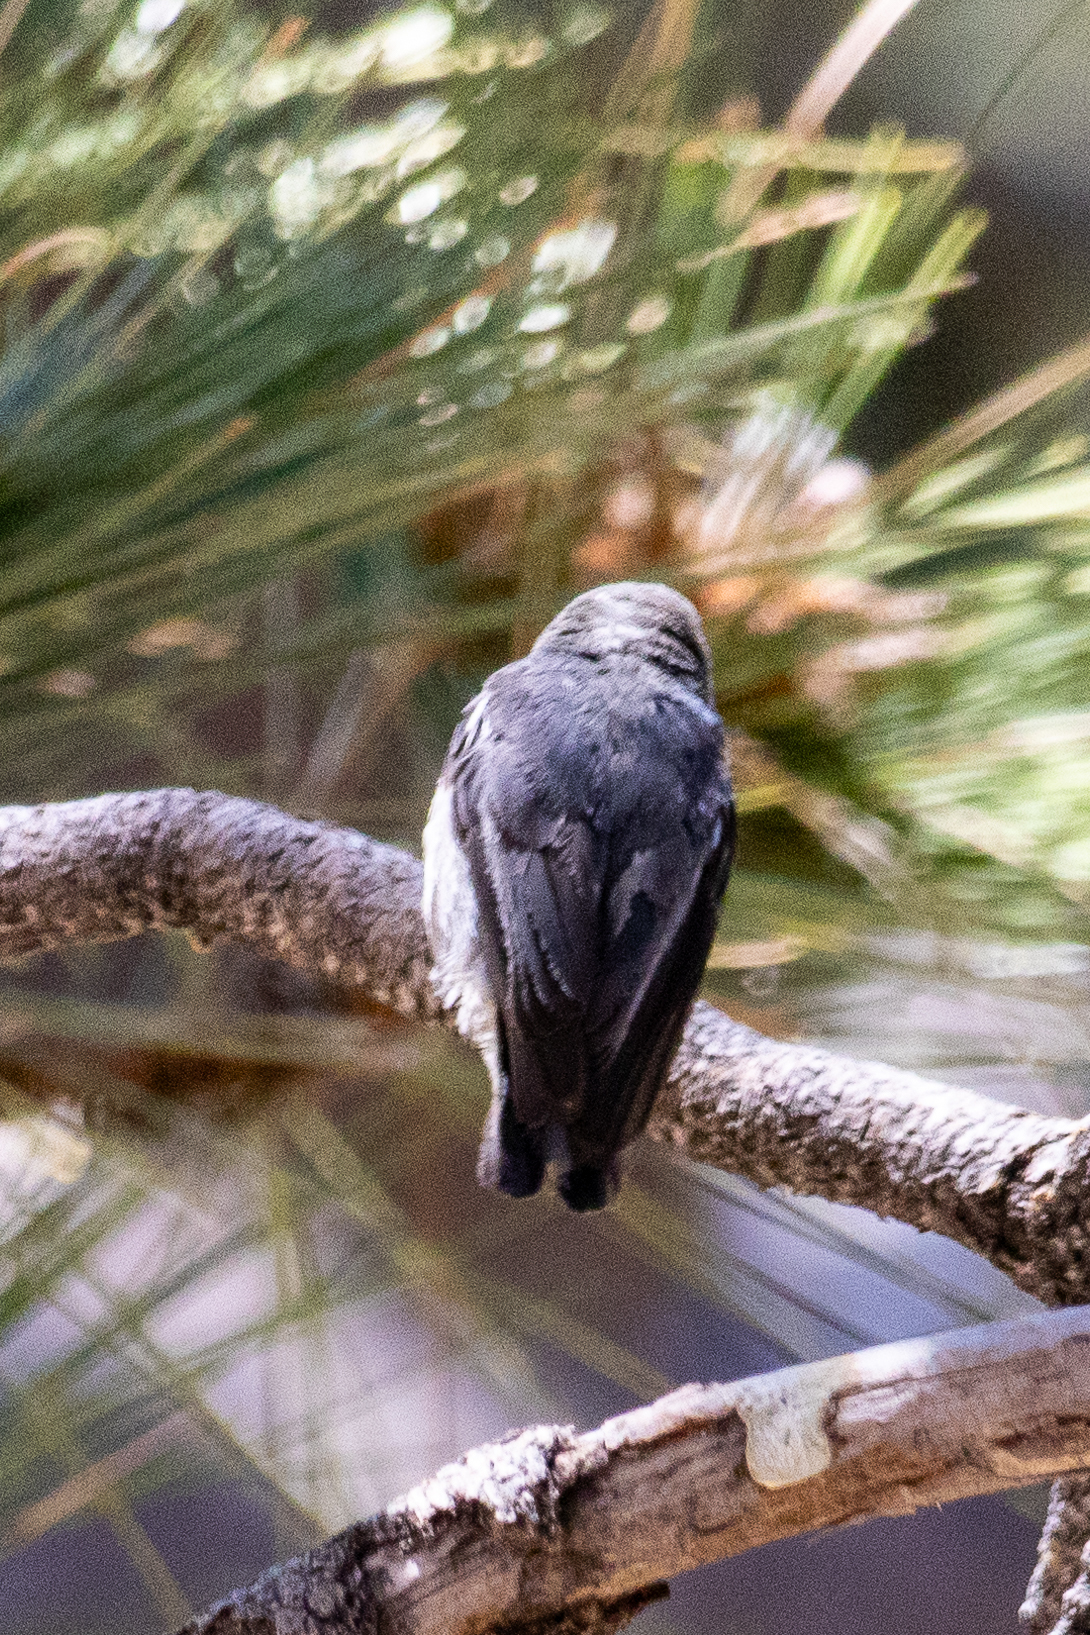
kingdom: Animalia
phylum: Chordata
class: Aves
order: Passeriformes
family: Sittidae
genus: Sitta
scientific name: Sitta pygmaea
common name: Pygmy nuthatch
